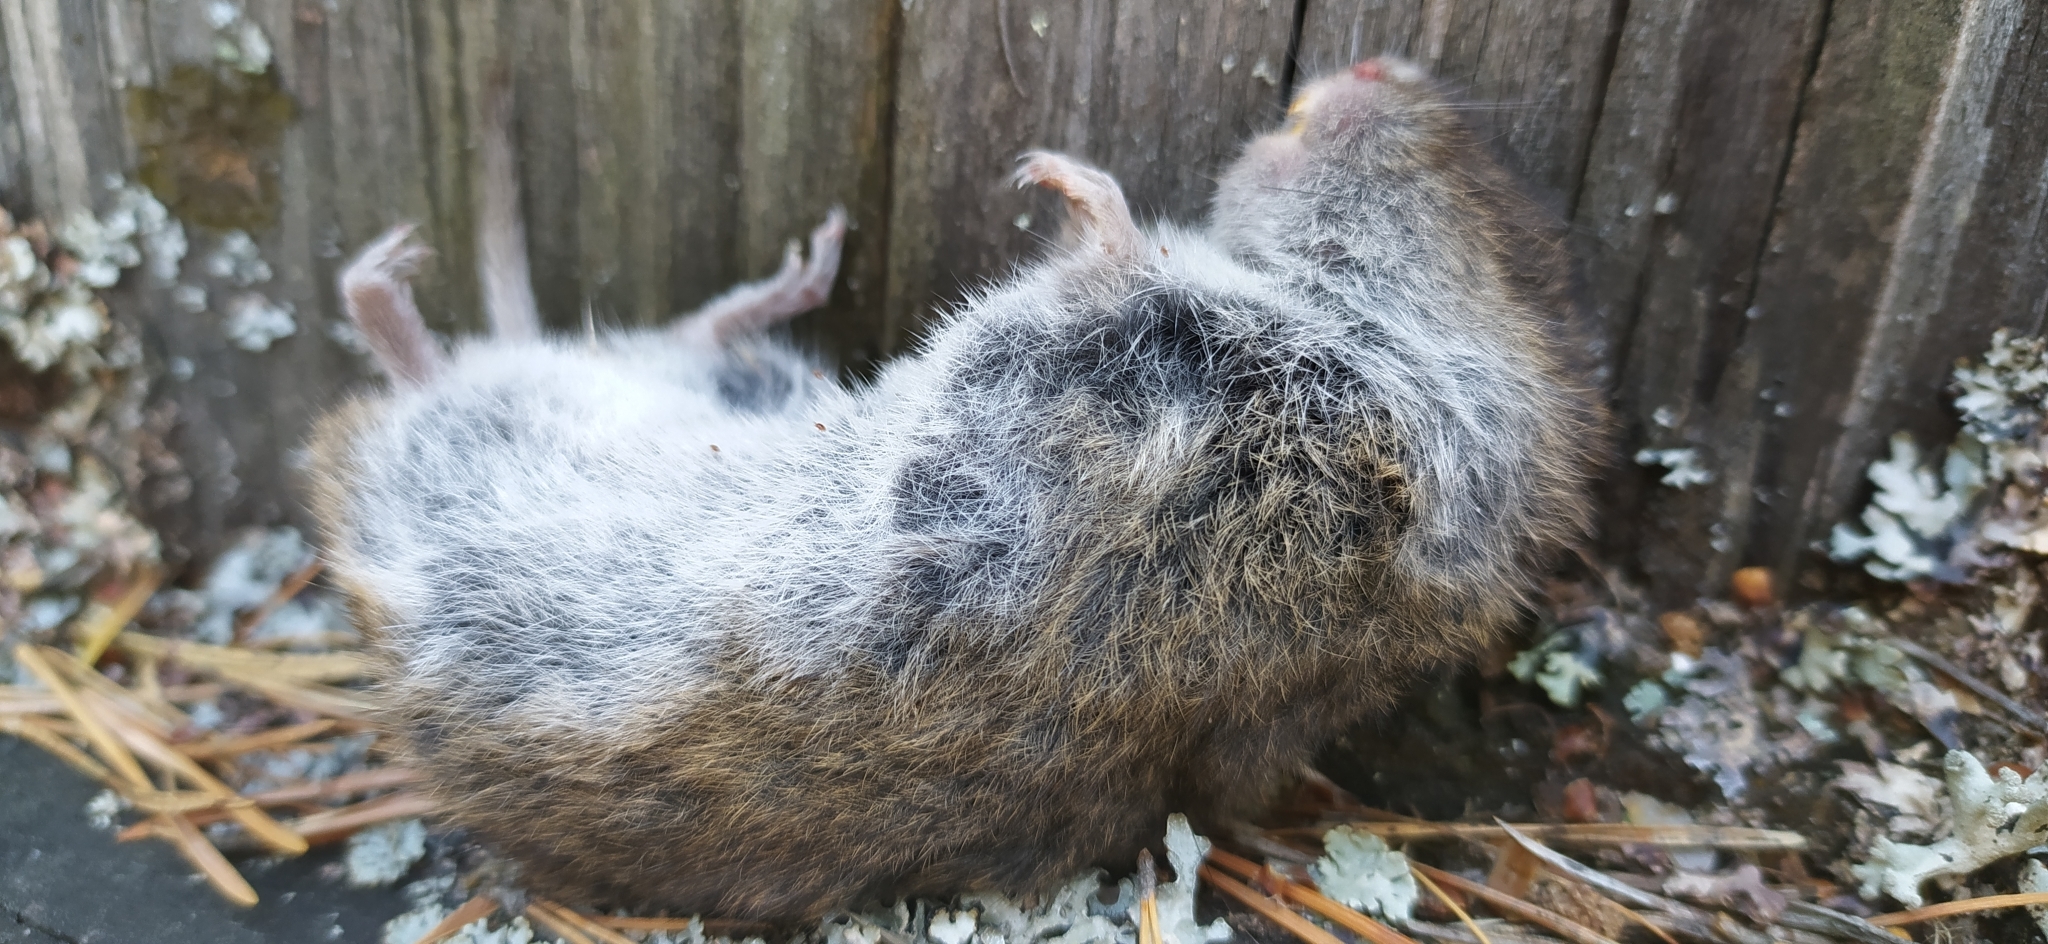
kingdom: Animalia
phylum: Chordata
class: Mammalia
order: Rodentia
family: Cricetidae
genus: Microtus
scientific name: Microtus arvalis
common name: Common vole
